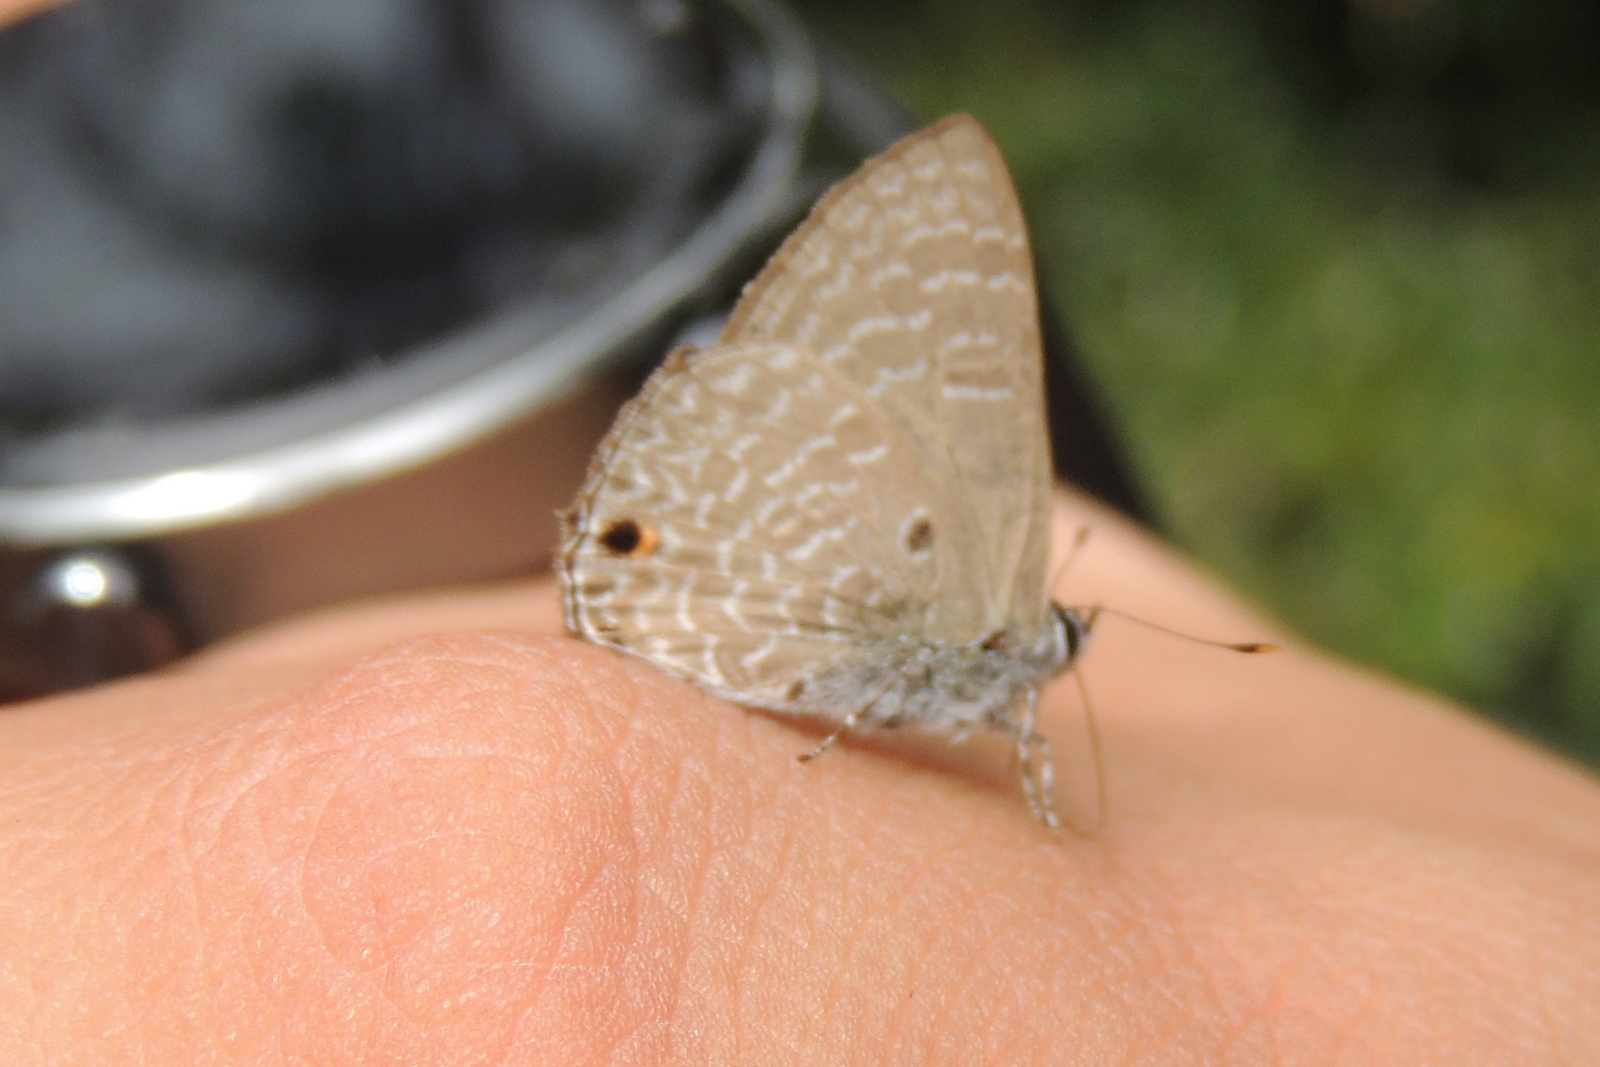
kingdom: Animalia
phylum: Arthropoda
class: Insecta
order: Lepidoptera
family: Lycaenidae
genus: Anthene
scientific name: Anthene lycaenina
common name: Pointed ciliate blue
